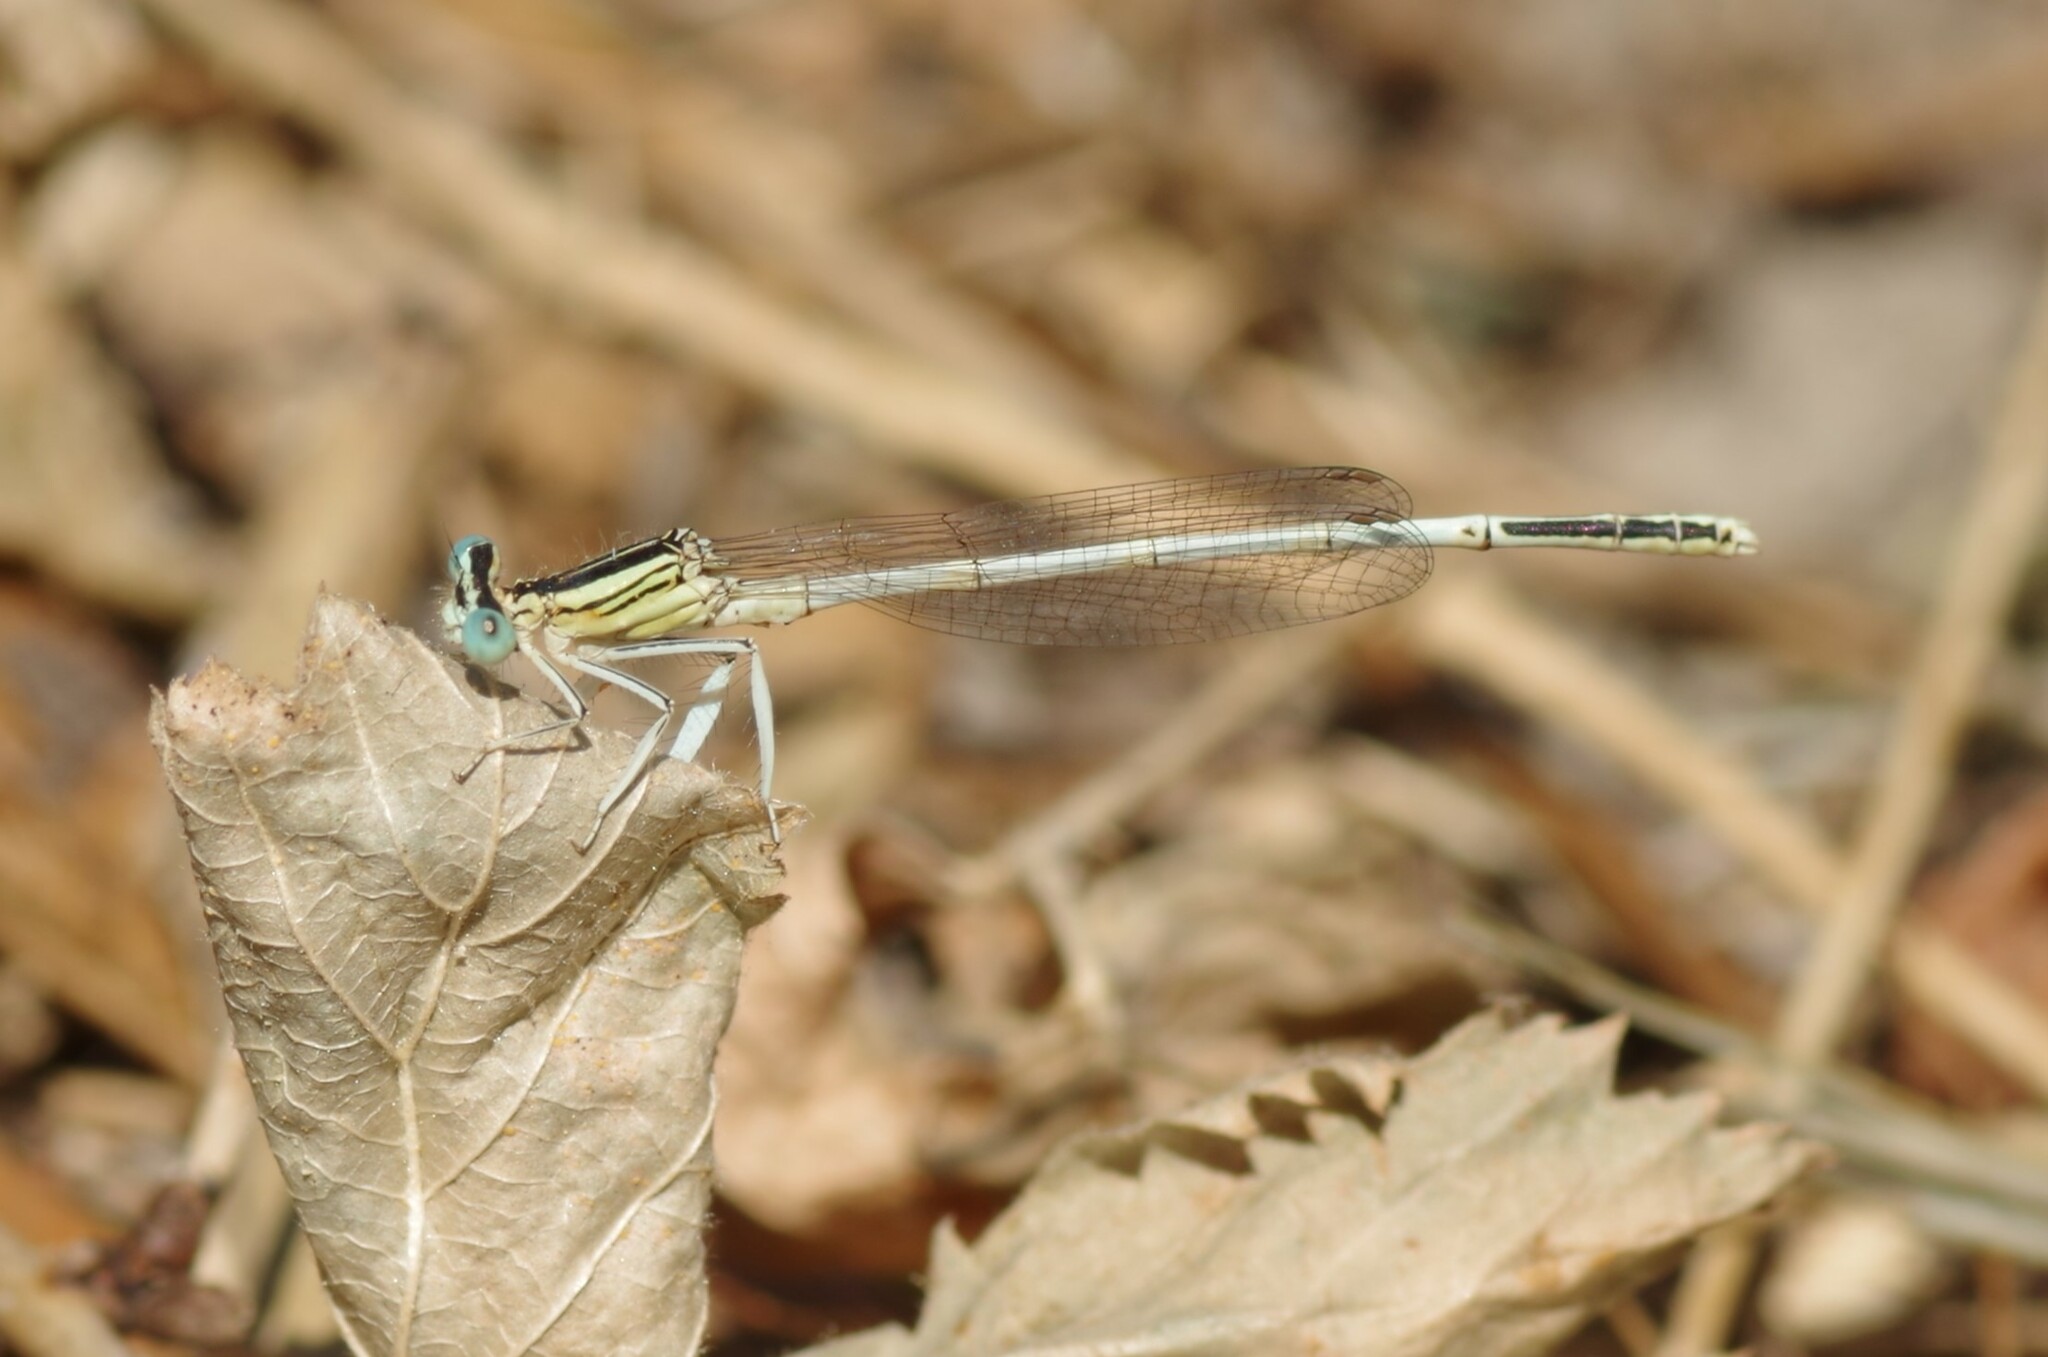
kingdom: Animalia
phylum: Arthropoda
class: Insecta
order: Odonata
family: Platycnemididae
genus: Platycnemis
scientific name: Platycnemis latipes
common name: White featherleg
